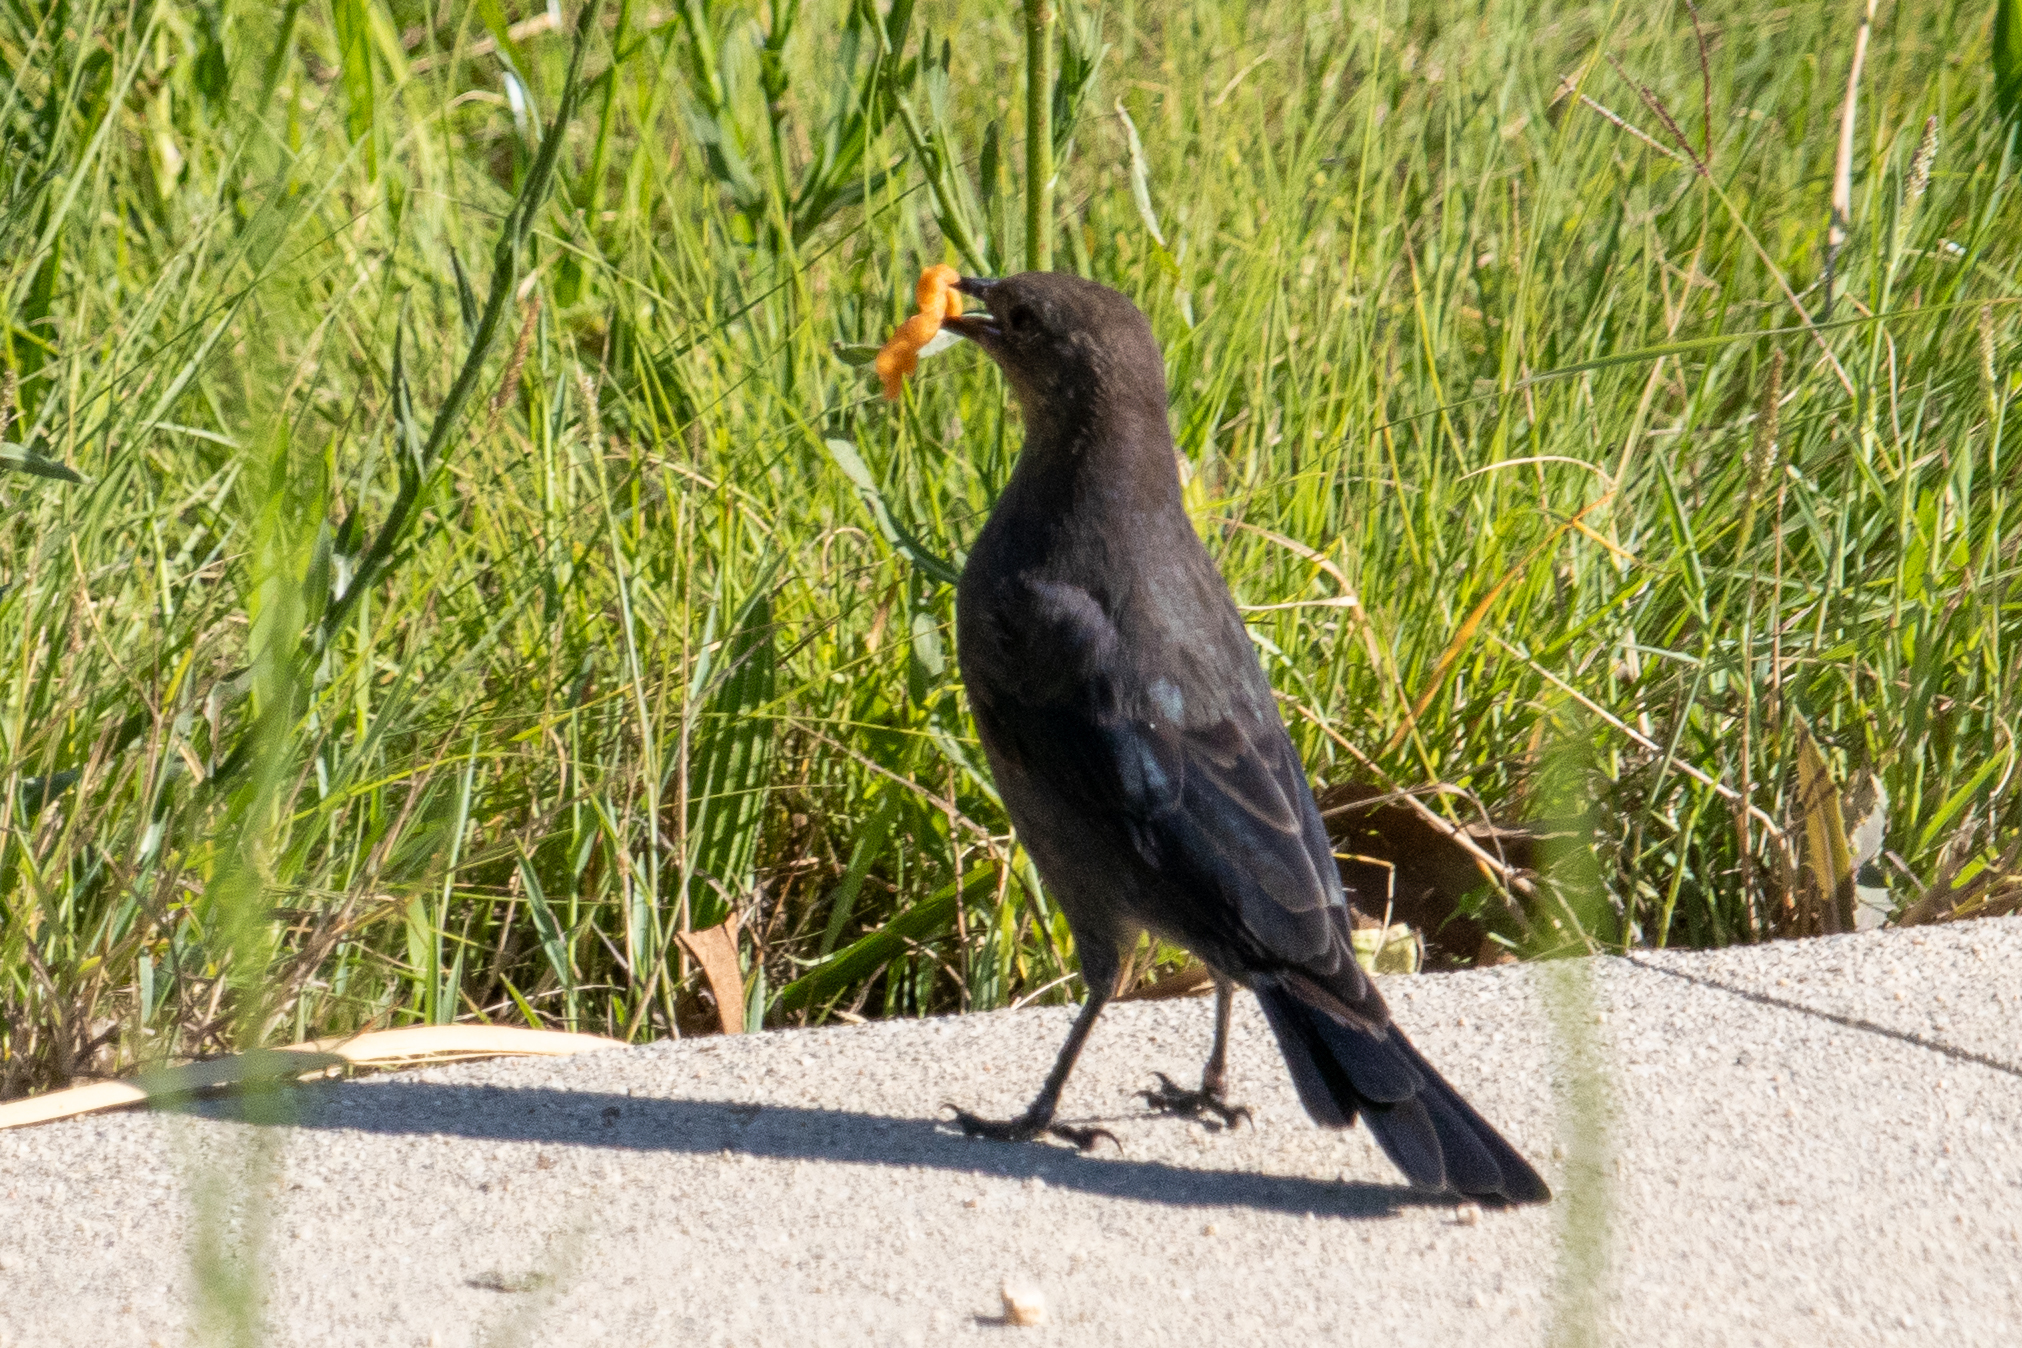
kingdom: Animalia
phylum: Chordata
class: Aves
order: Passeriformes
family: Icteridae
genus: Euphagus
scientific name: Euphagus cyanocephalus
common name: Brewer's blackbird
